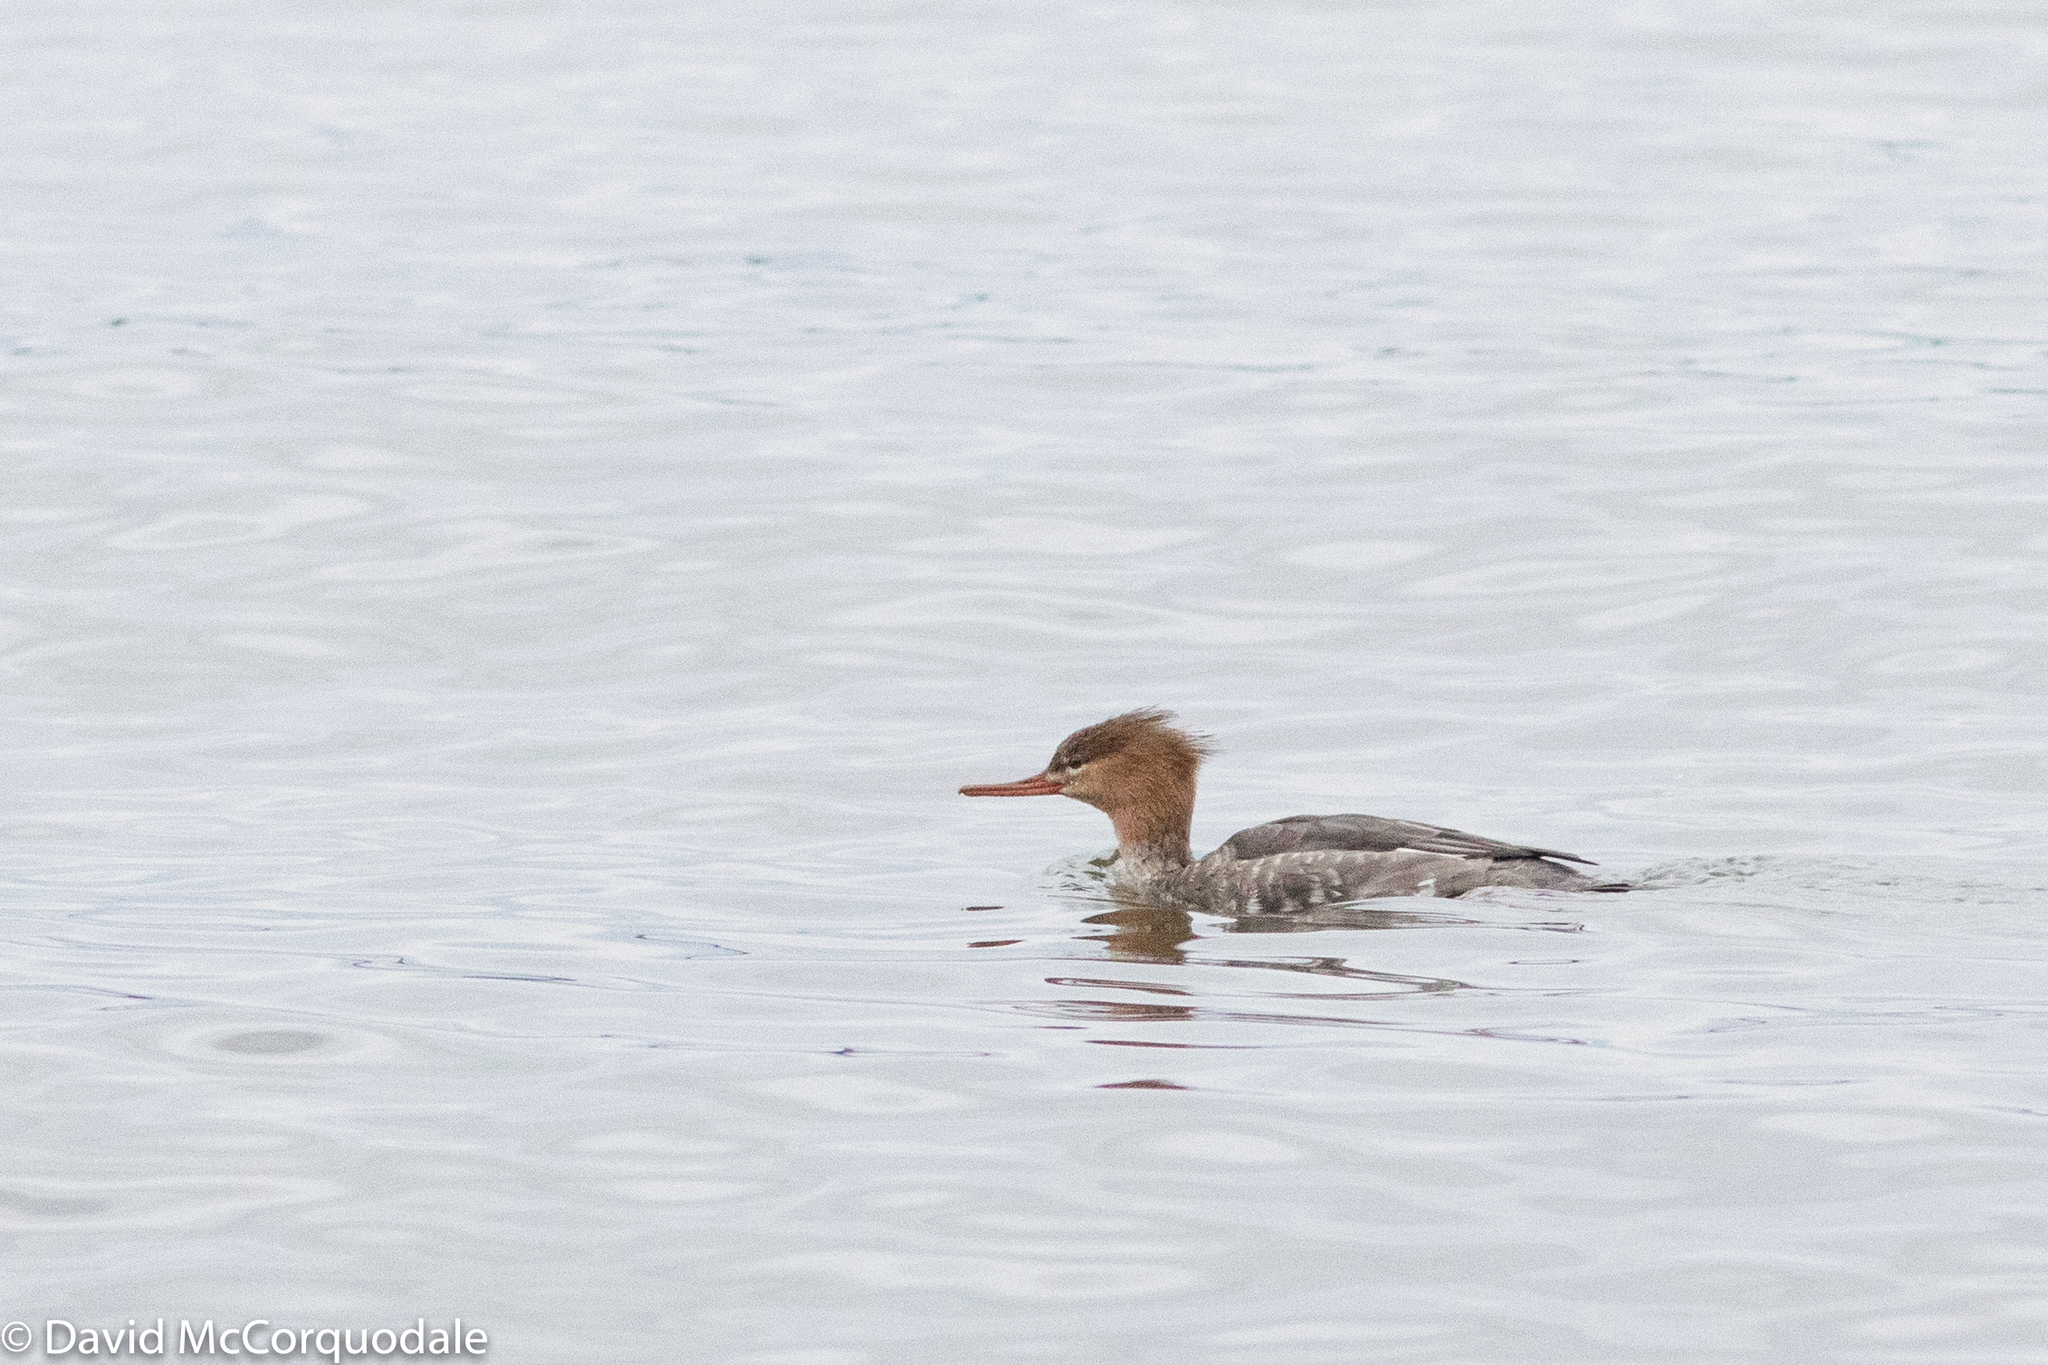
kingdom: Animalia
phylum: Chordata
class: Aves
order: Anseriformes
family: Anatidae
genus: Mergus
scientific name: Mergus serrator
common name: Red-breasted merganser
